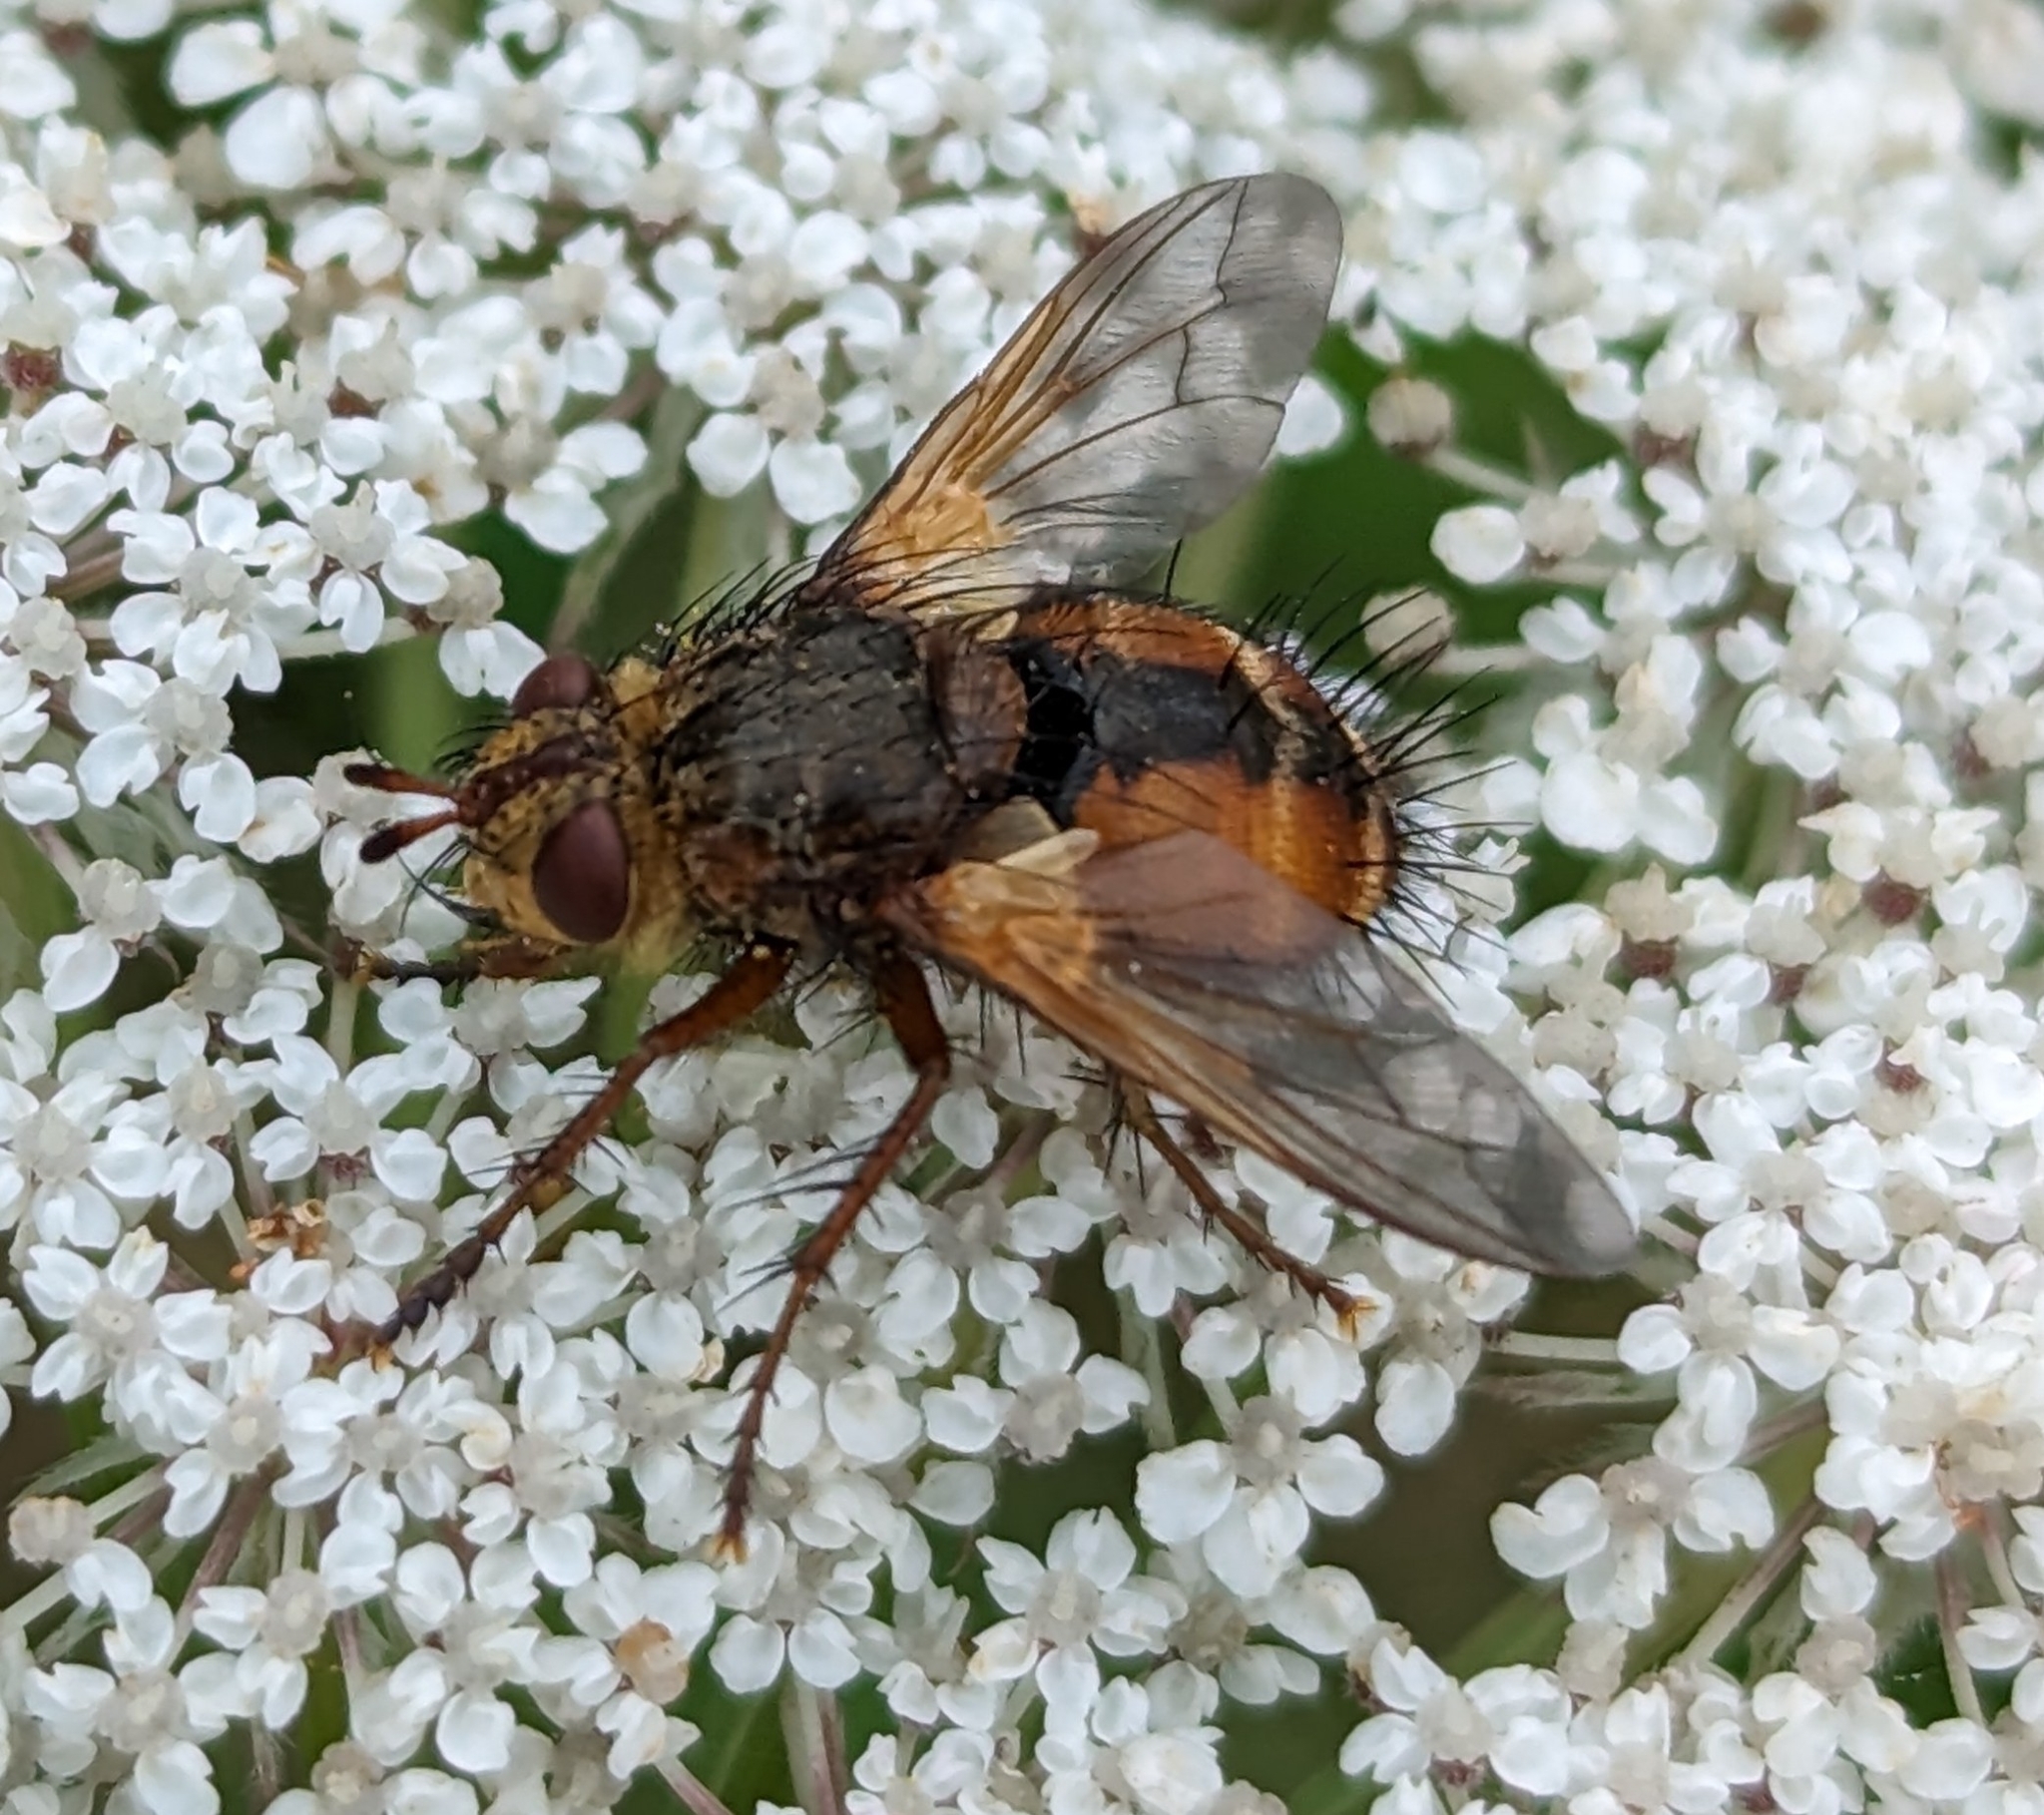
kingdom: Animalia
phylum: Arthropoda
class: Insecta
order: Diptera
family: Tachinidae
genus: Tachina
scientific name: Tachina fera
